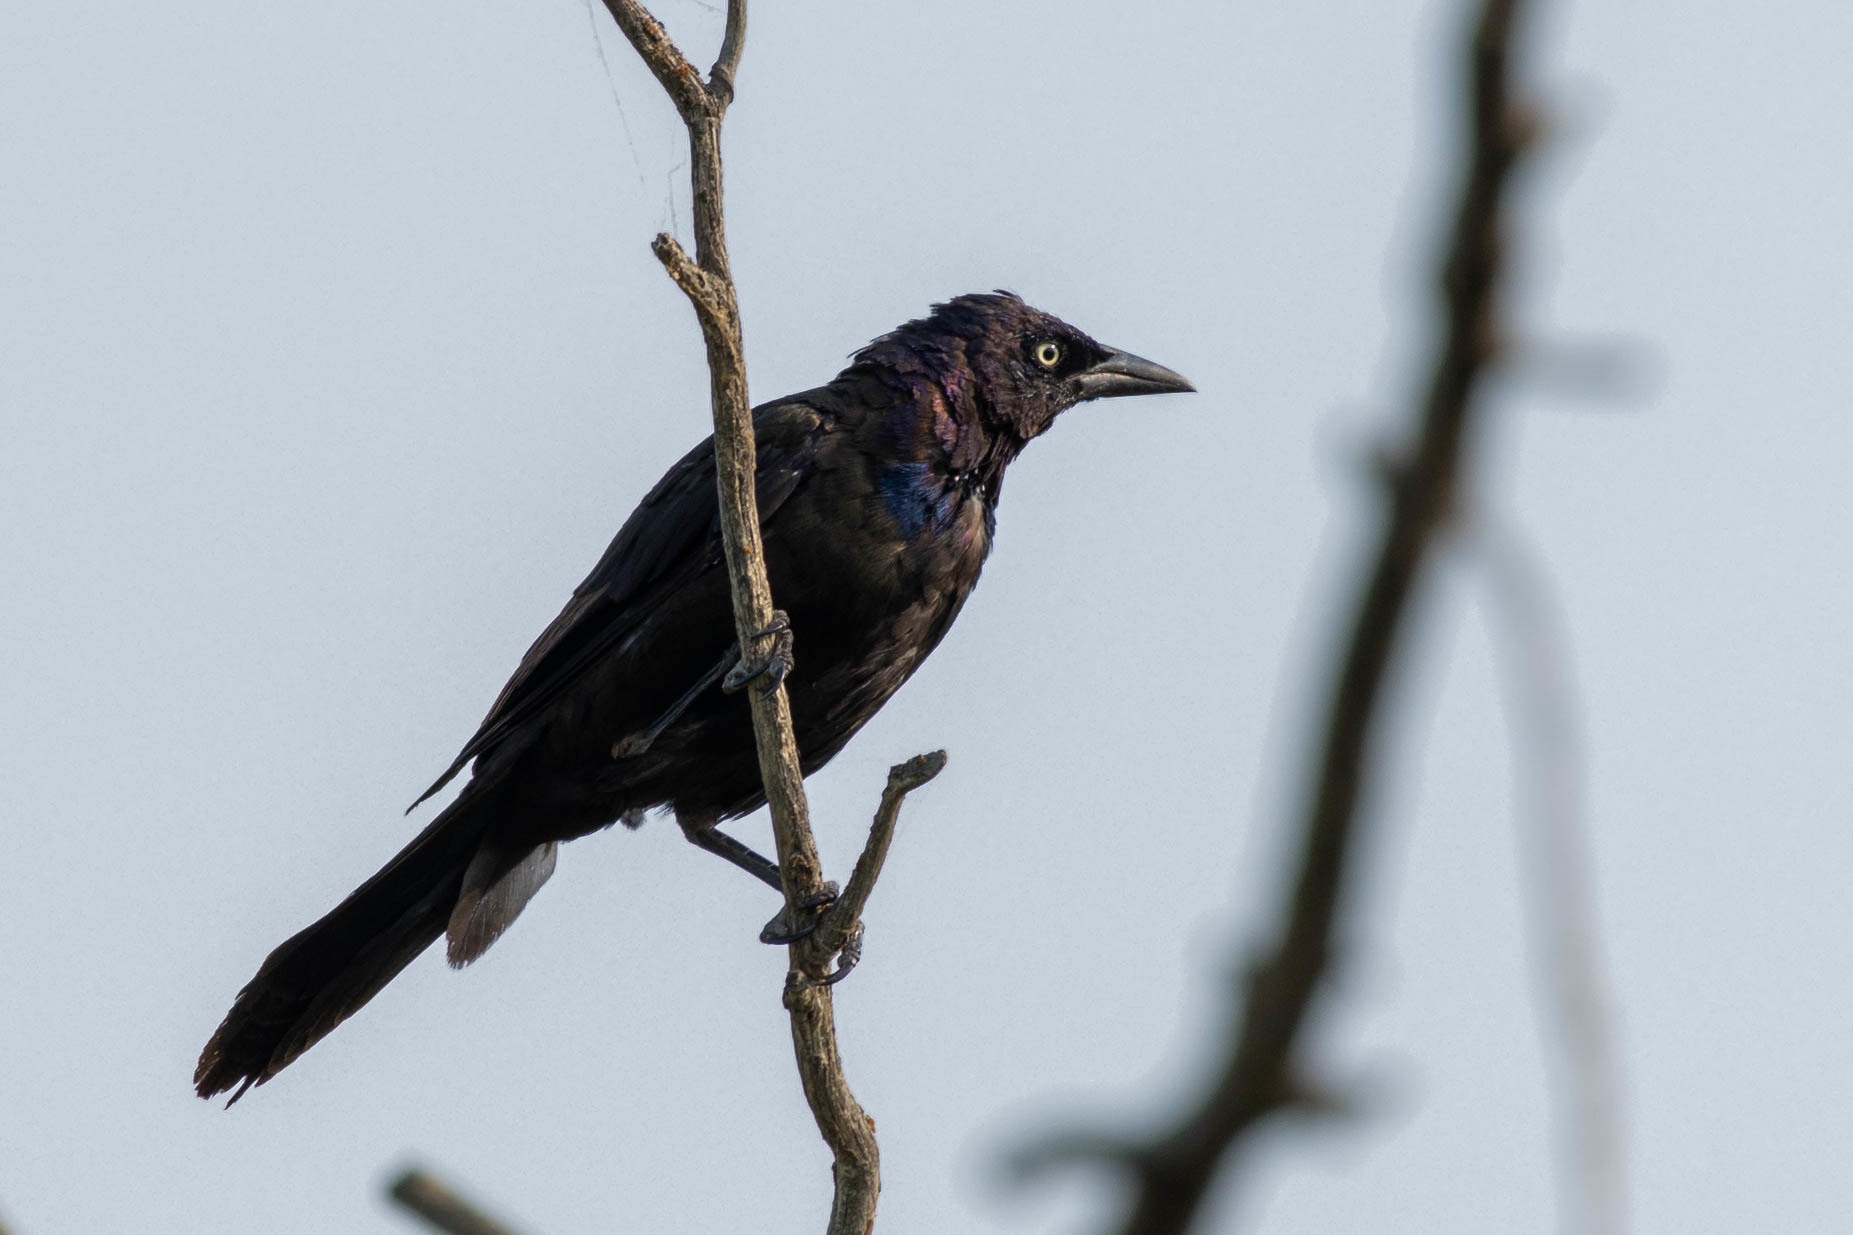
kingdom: Animalia
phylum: Chordata
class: Aves
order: Passeriformes
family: Icteridae
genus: Quiscalus
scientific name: Quiscalus quiscula
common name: Common grackle
